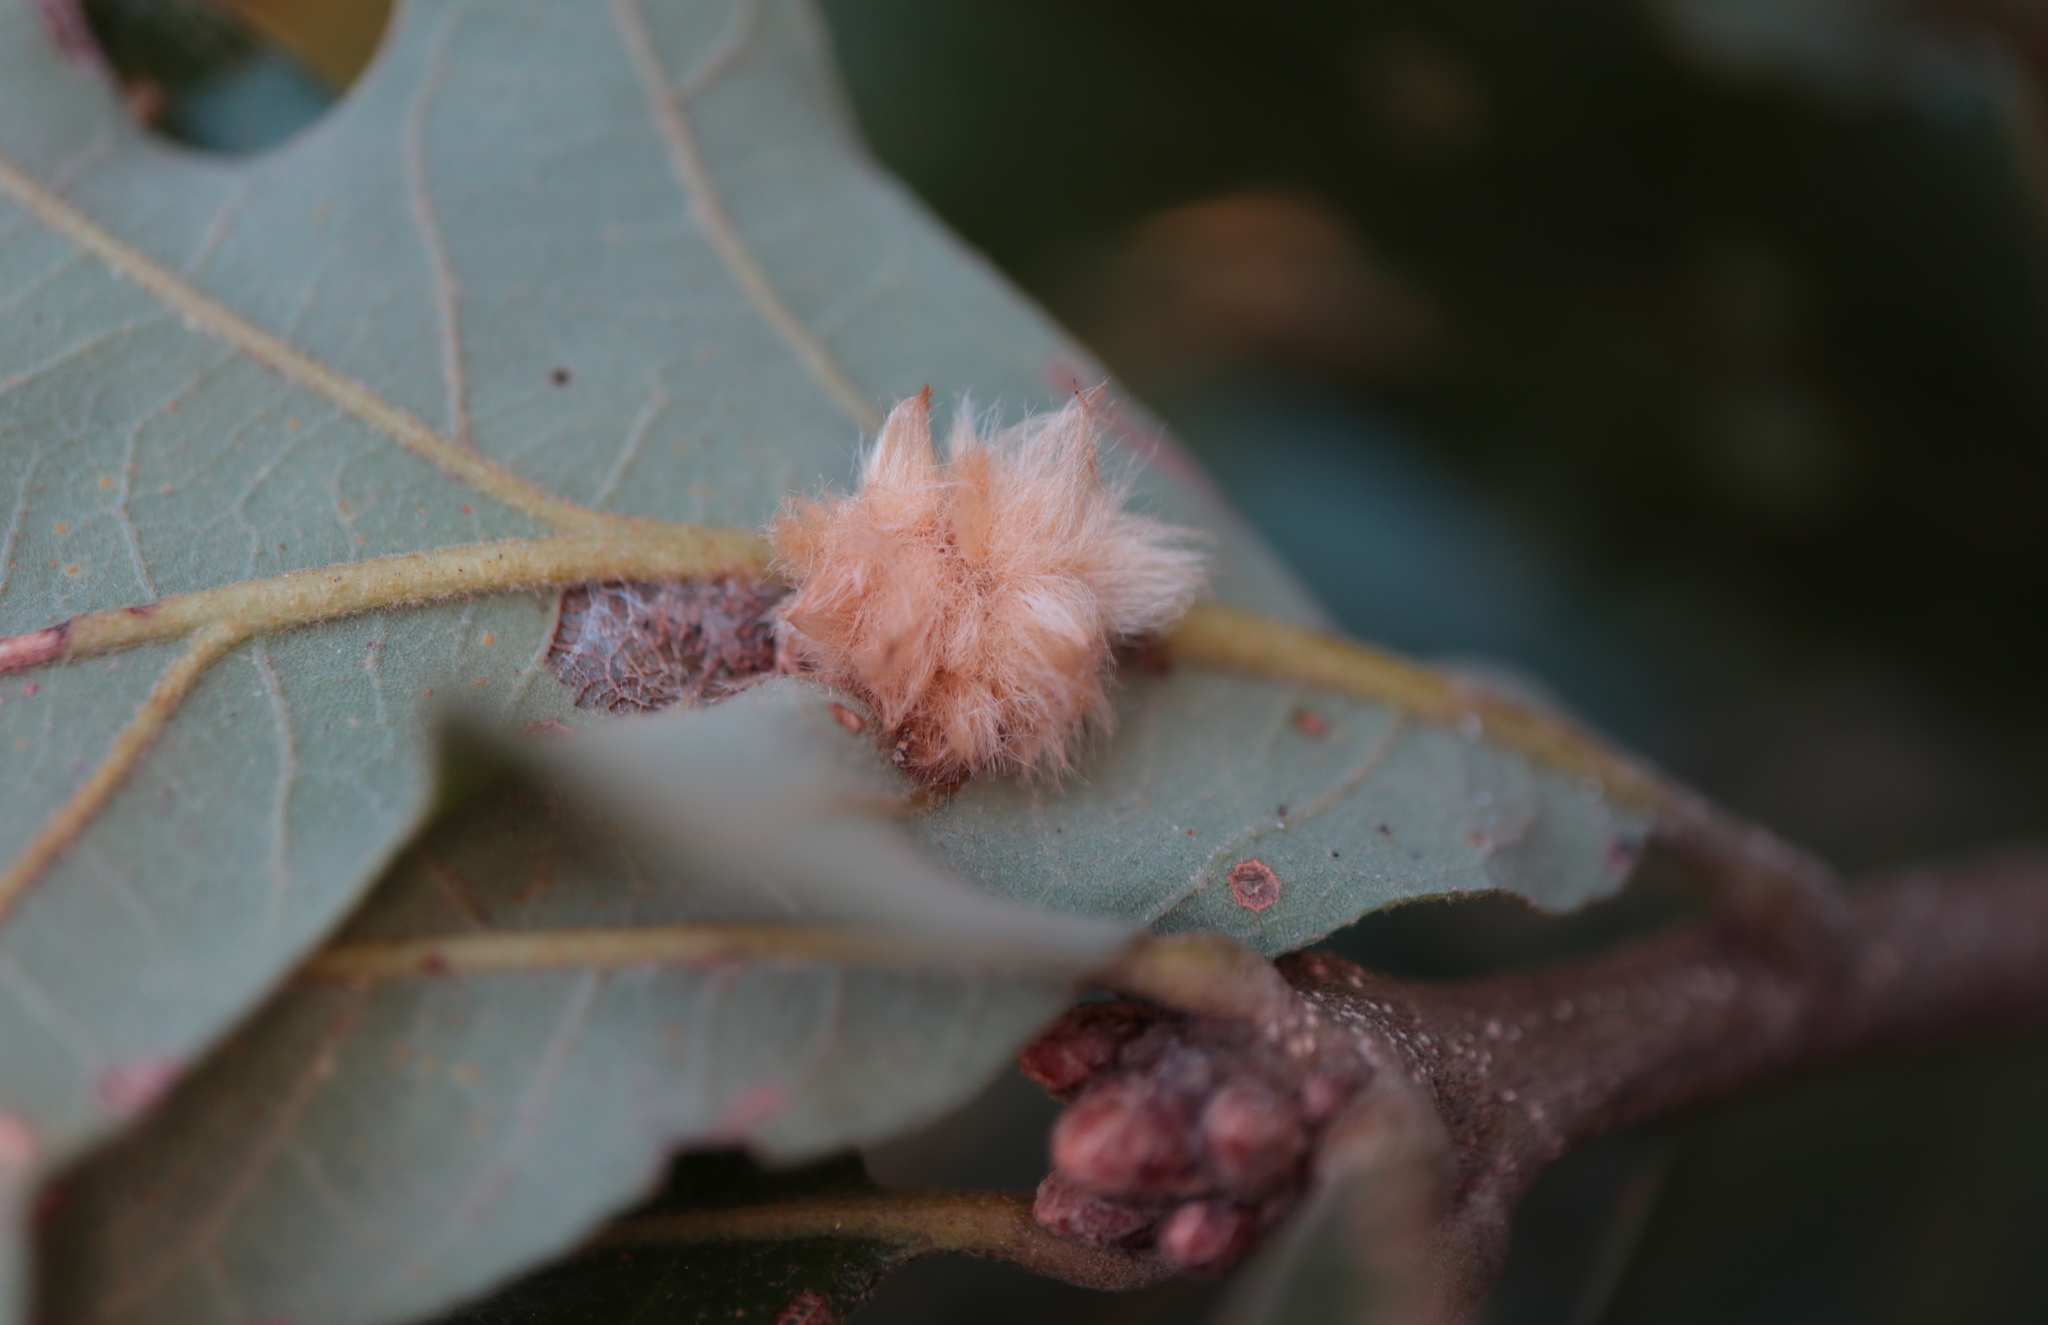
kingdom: Animalia
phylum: Arthropoda
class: Insecta
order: Hymenoptera
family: Cynipidae
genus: Andricus
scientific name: Andricus Druon pattoni
